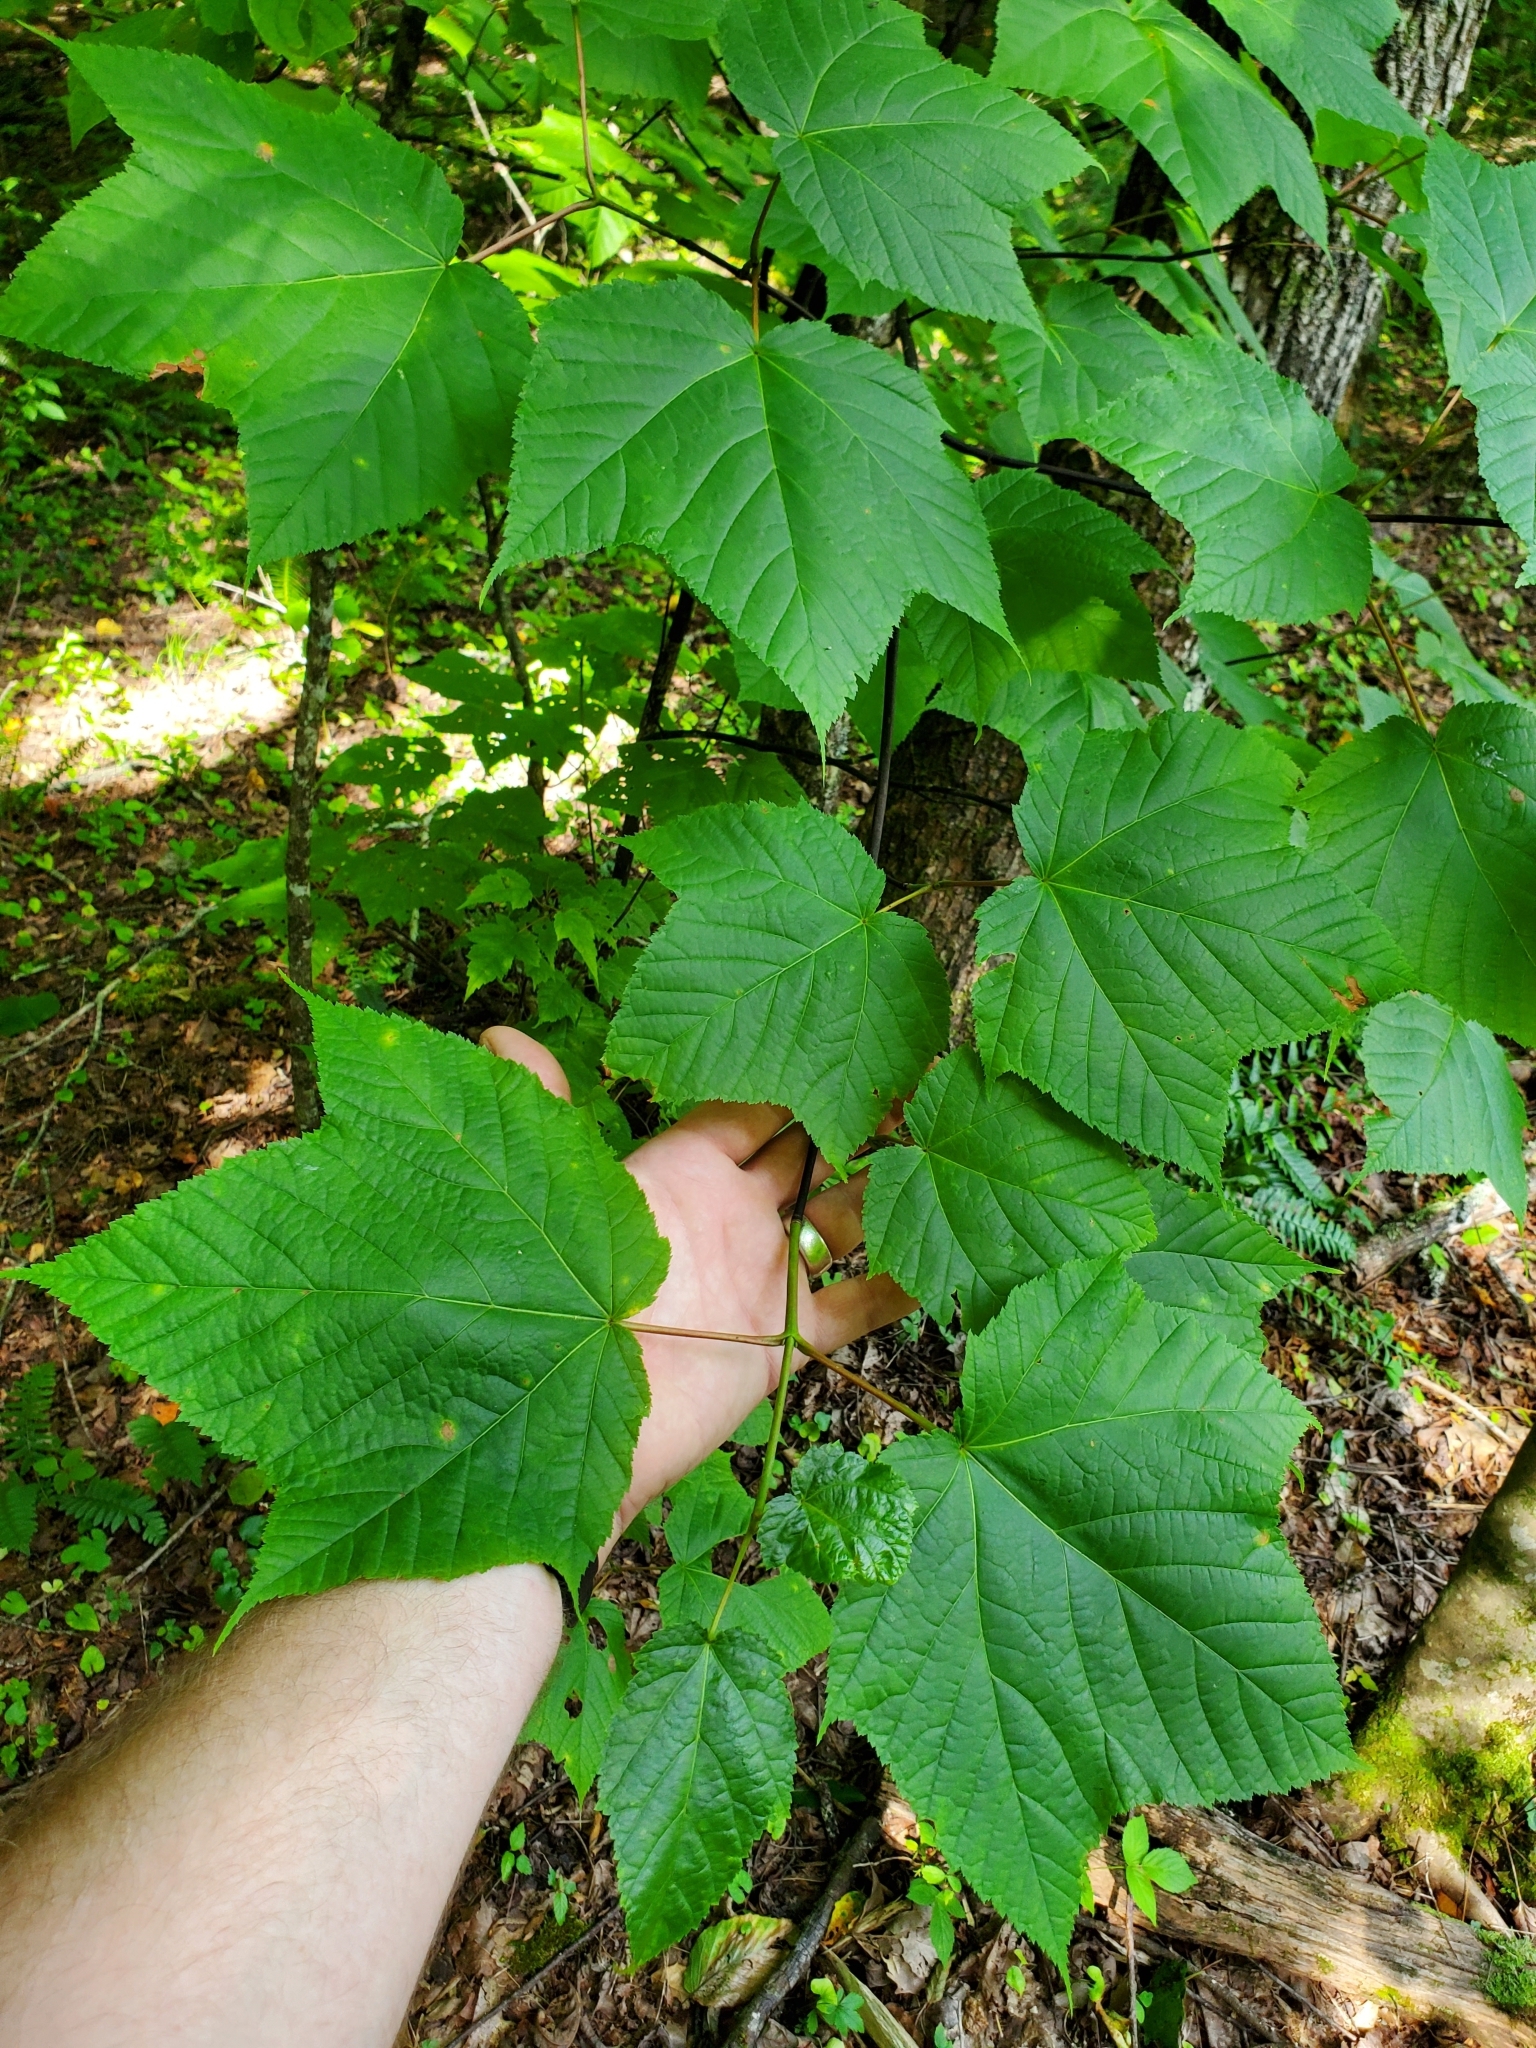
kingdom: Plantae
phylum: Tracheophyta
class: Magnoliopsida
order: Sapindales
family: Sapindaceae
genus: Acer
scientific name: Acer pensylvanicum
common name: Moosewood
